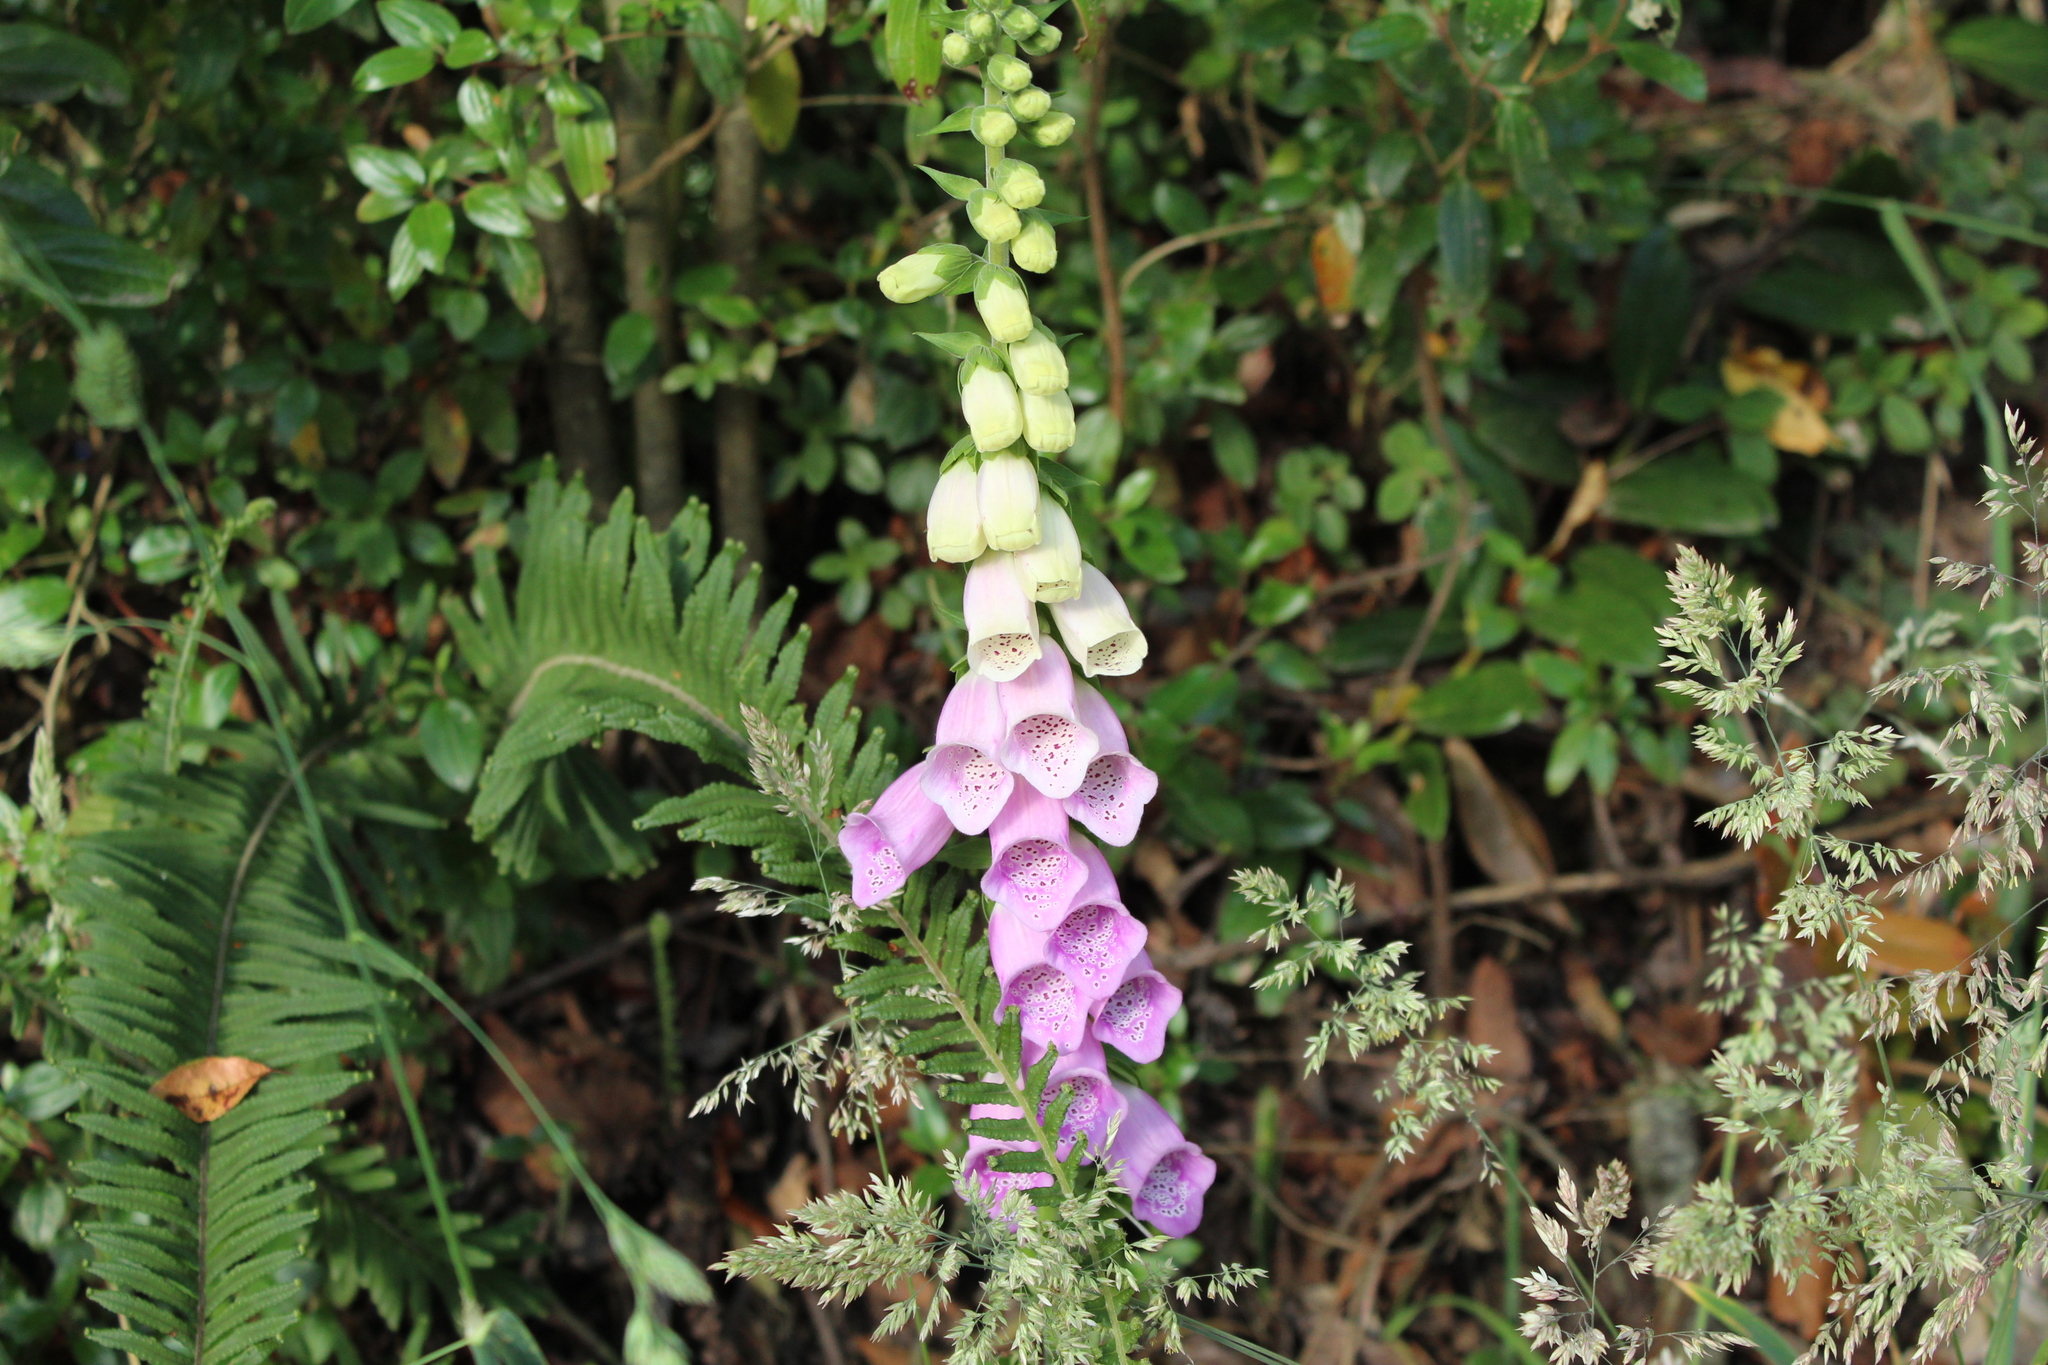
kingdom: Plantae
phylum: Tracheophyta
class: Magnoliopsida
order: Lamiales
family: Plantaginaceae
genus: Digitalis
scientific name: Digitalis purpurea
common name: Foxglove
